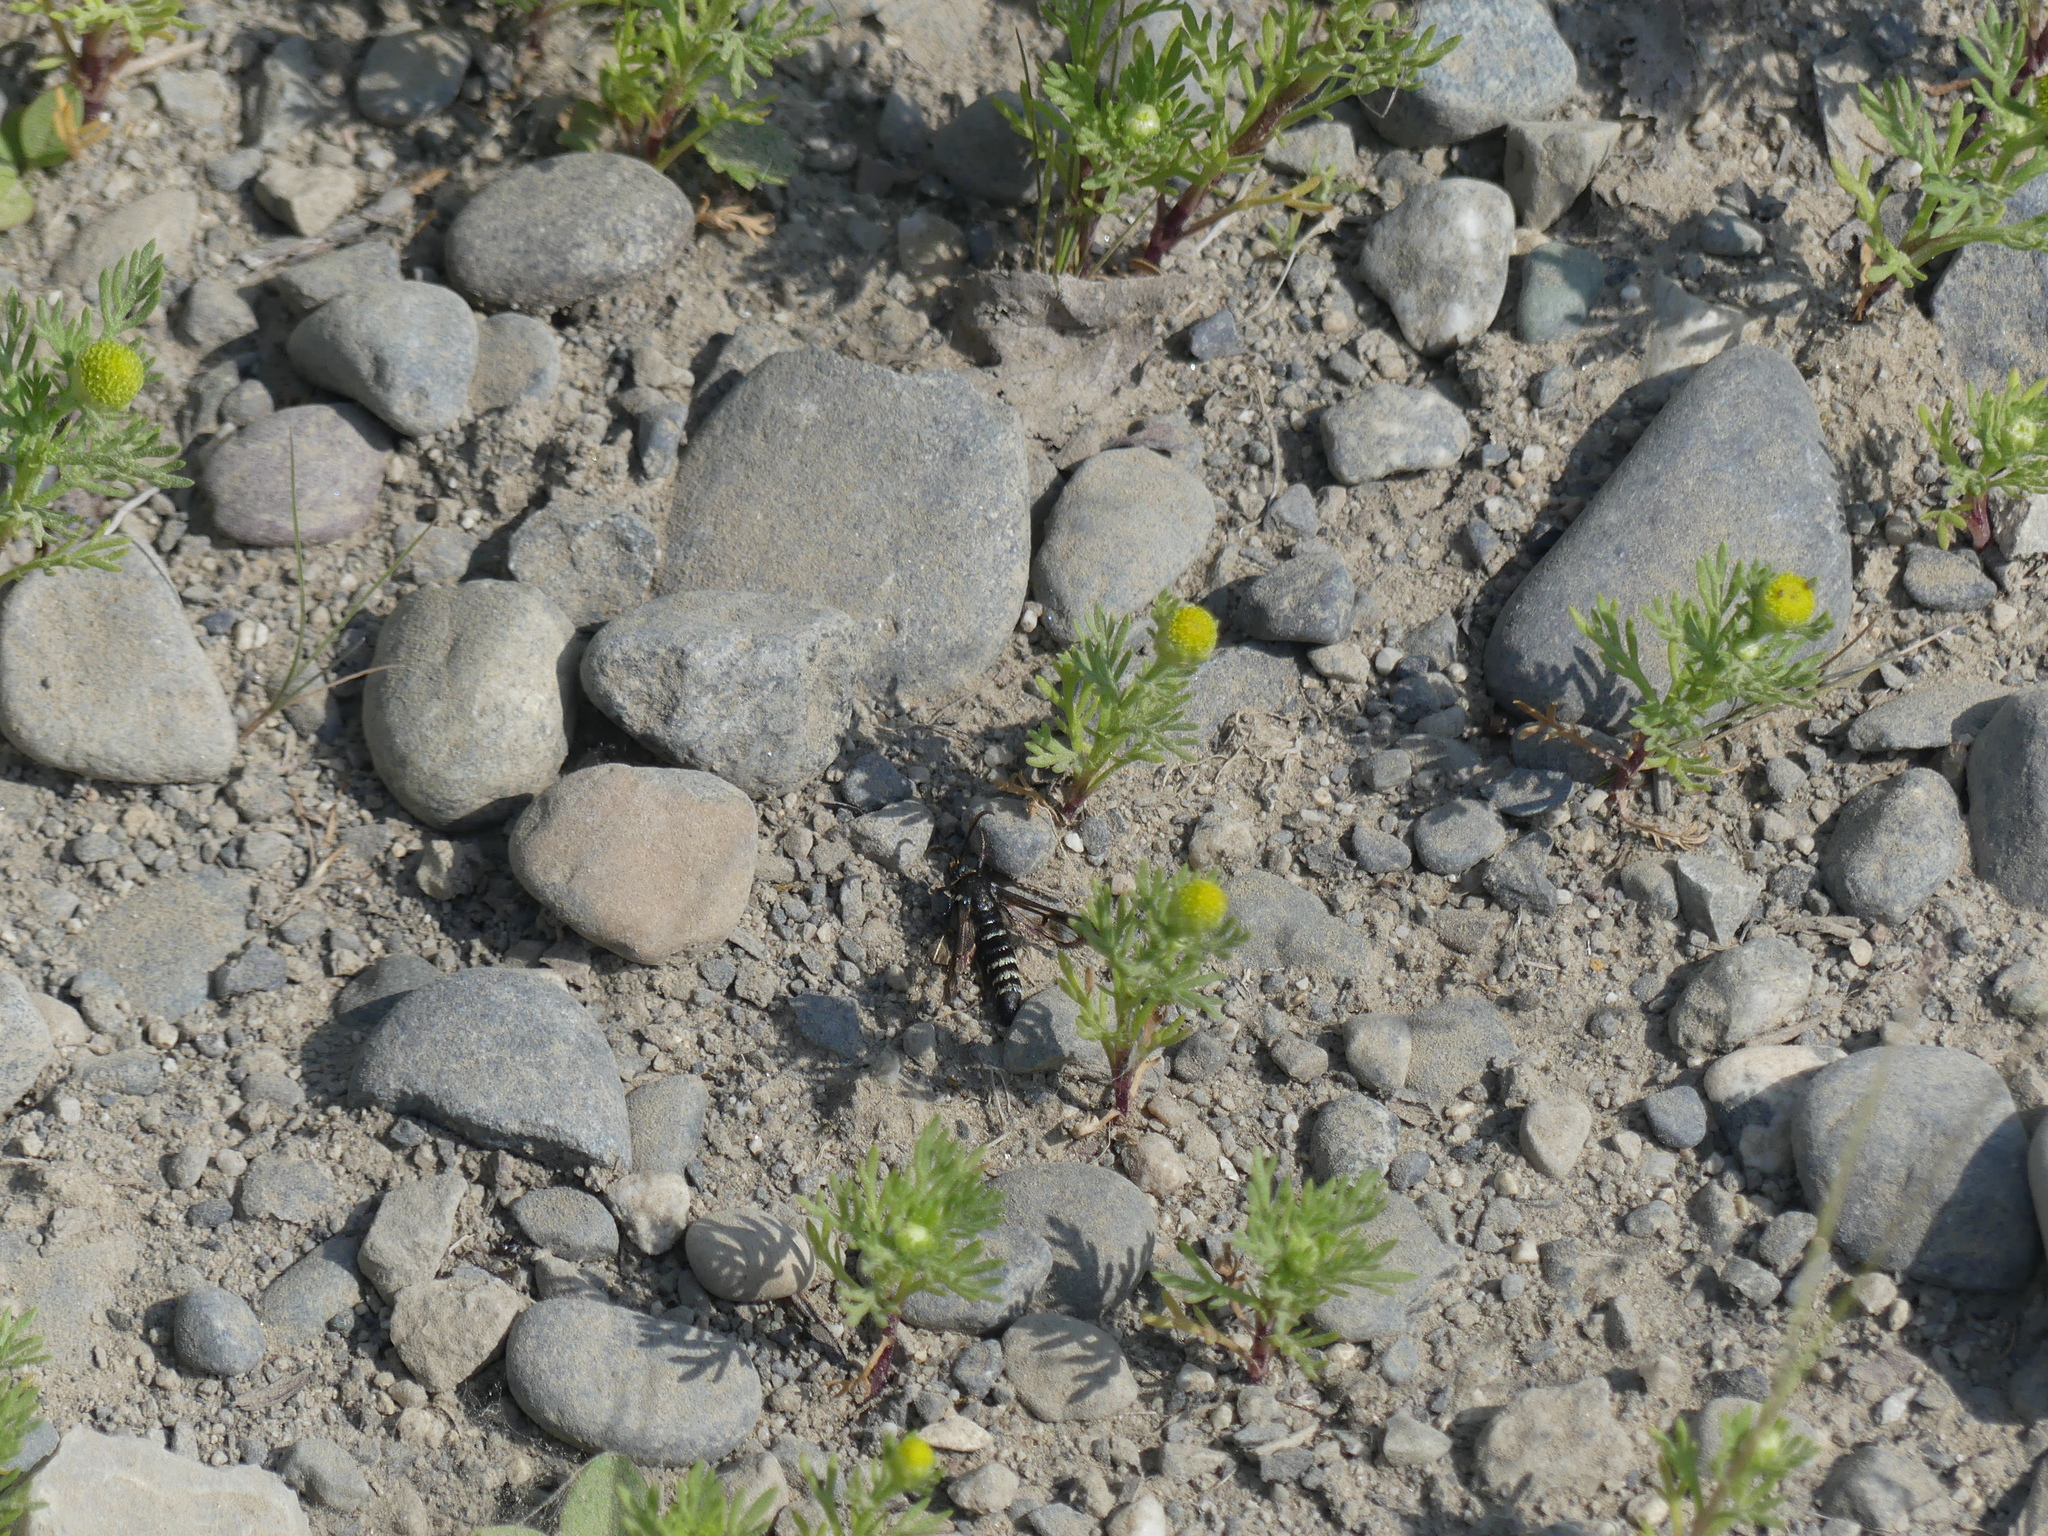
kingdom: Plantae
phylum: Tracheophyta
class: Magnoliopsida
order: Asterales
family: Asteraceae
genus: Matricaria
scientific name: Matricaria discoidea
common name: Disc mayweed
